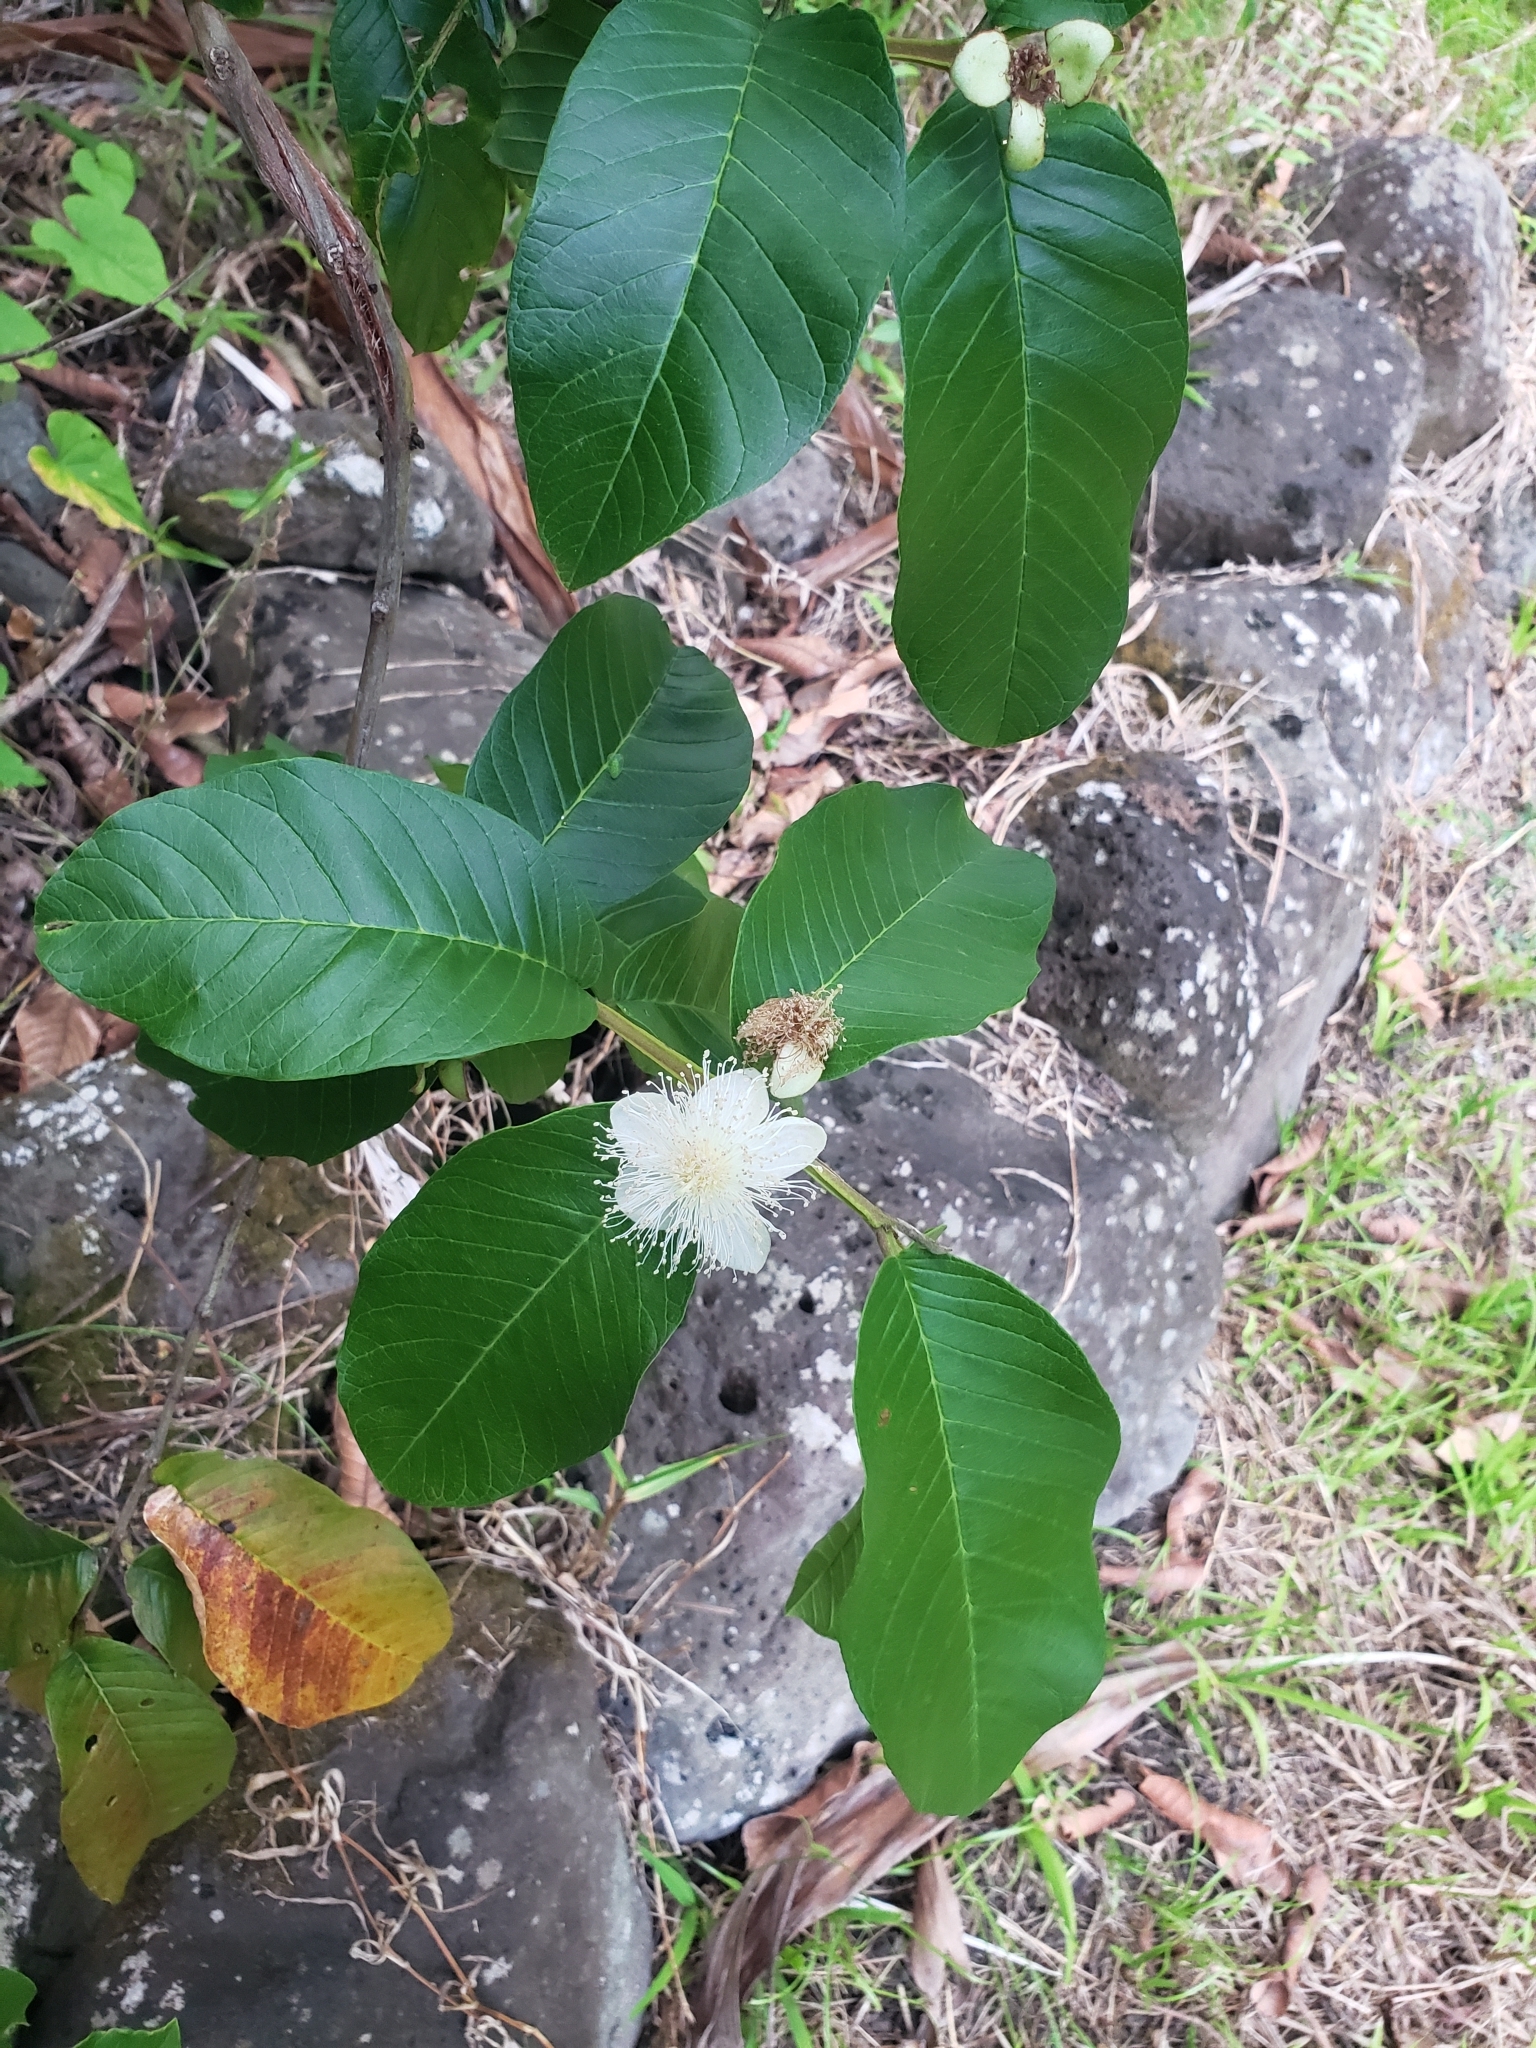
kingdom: Plantae
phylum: Tracheophyta
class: Magnoliopsida
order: Myrtales
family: Myrtaceae
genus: Psidium
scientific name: Psidium guajava
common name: Guava
